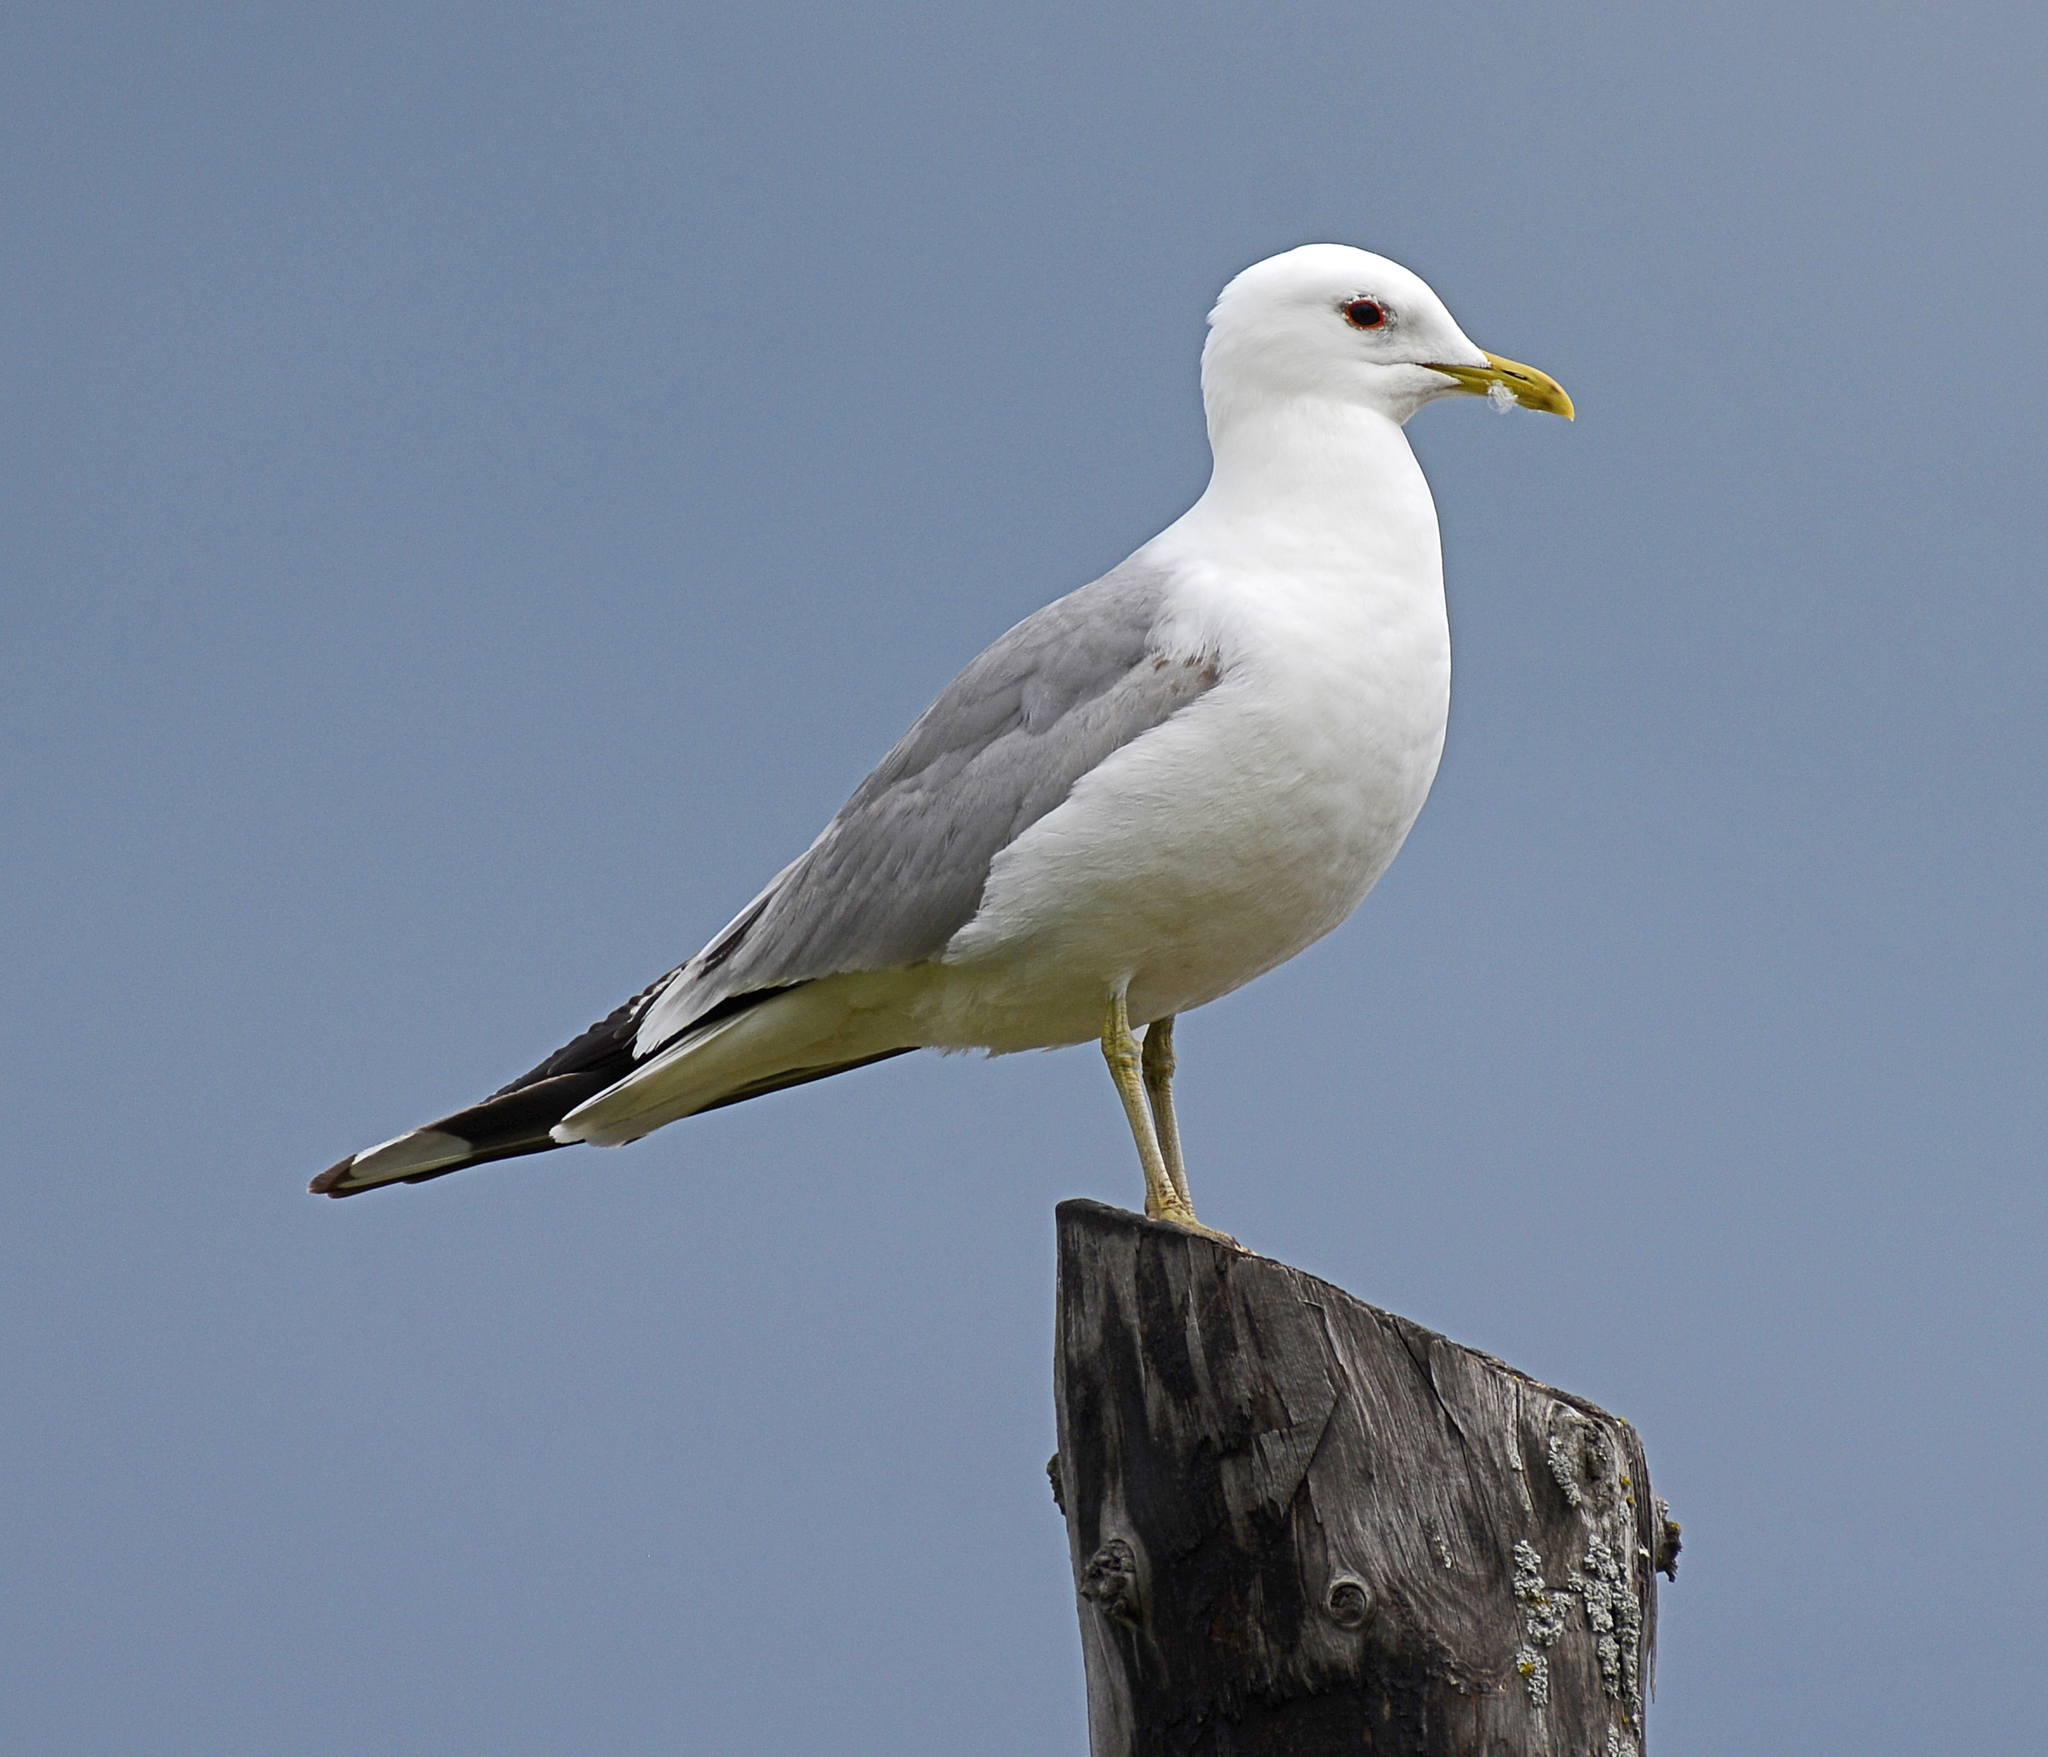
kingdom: Animalia
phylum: Chordata
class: Aves
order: Charadriiformes
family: Laridae
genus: Larus
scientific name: Larus canus
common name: Mew gull
